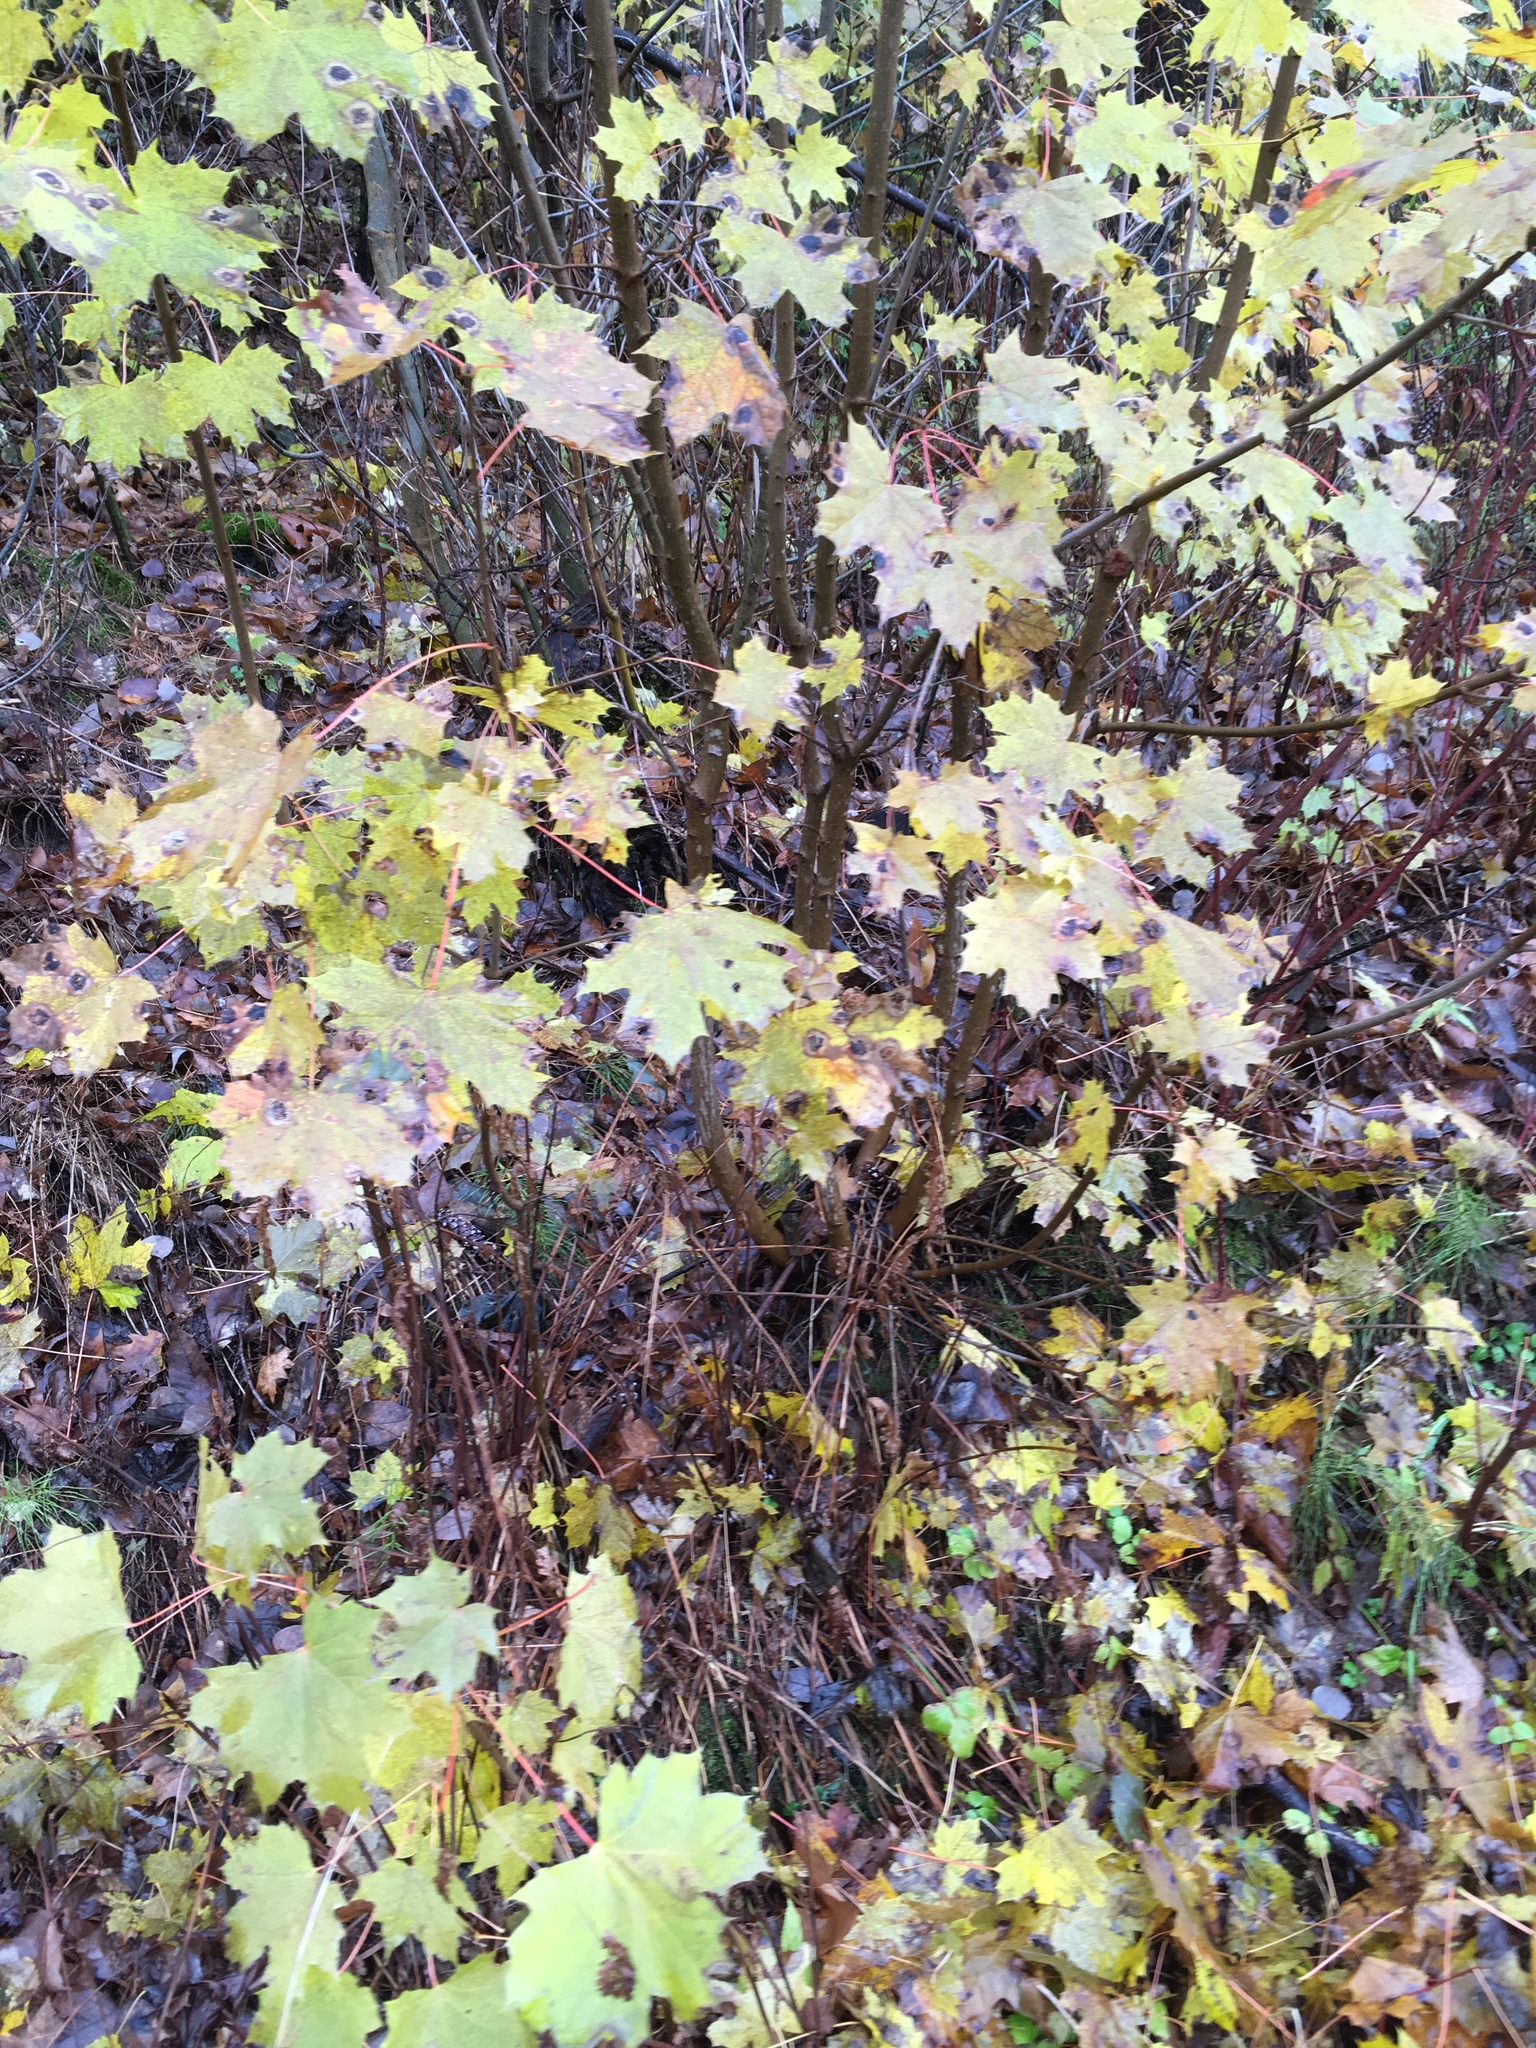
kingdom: Plantae
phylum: Tracheophyta
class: Magnoliopsida
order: Sapindales
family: Sapindaceae
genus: Acer
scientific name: Acer platanoides
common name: Norway maple
